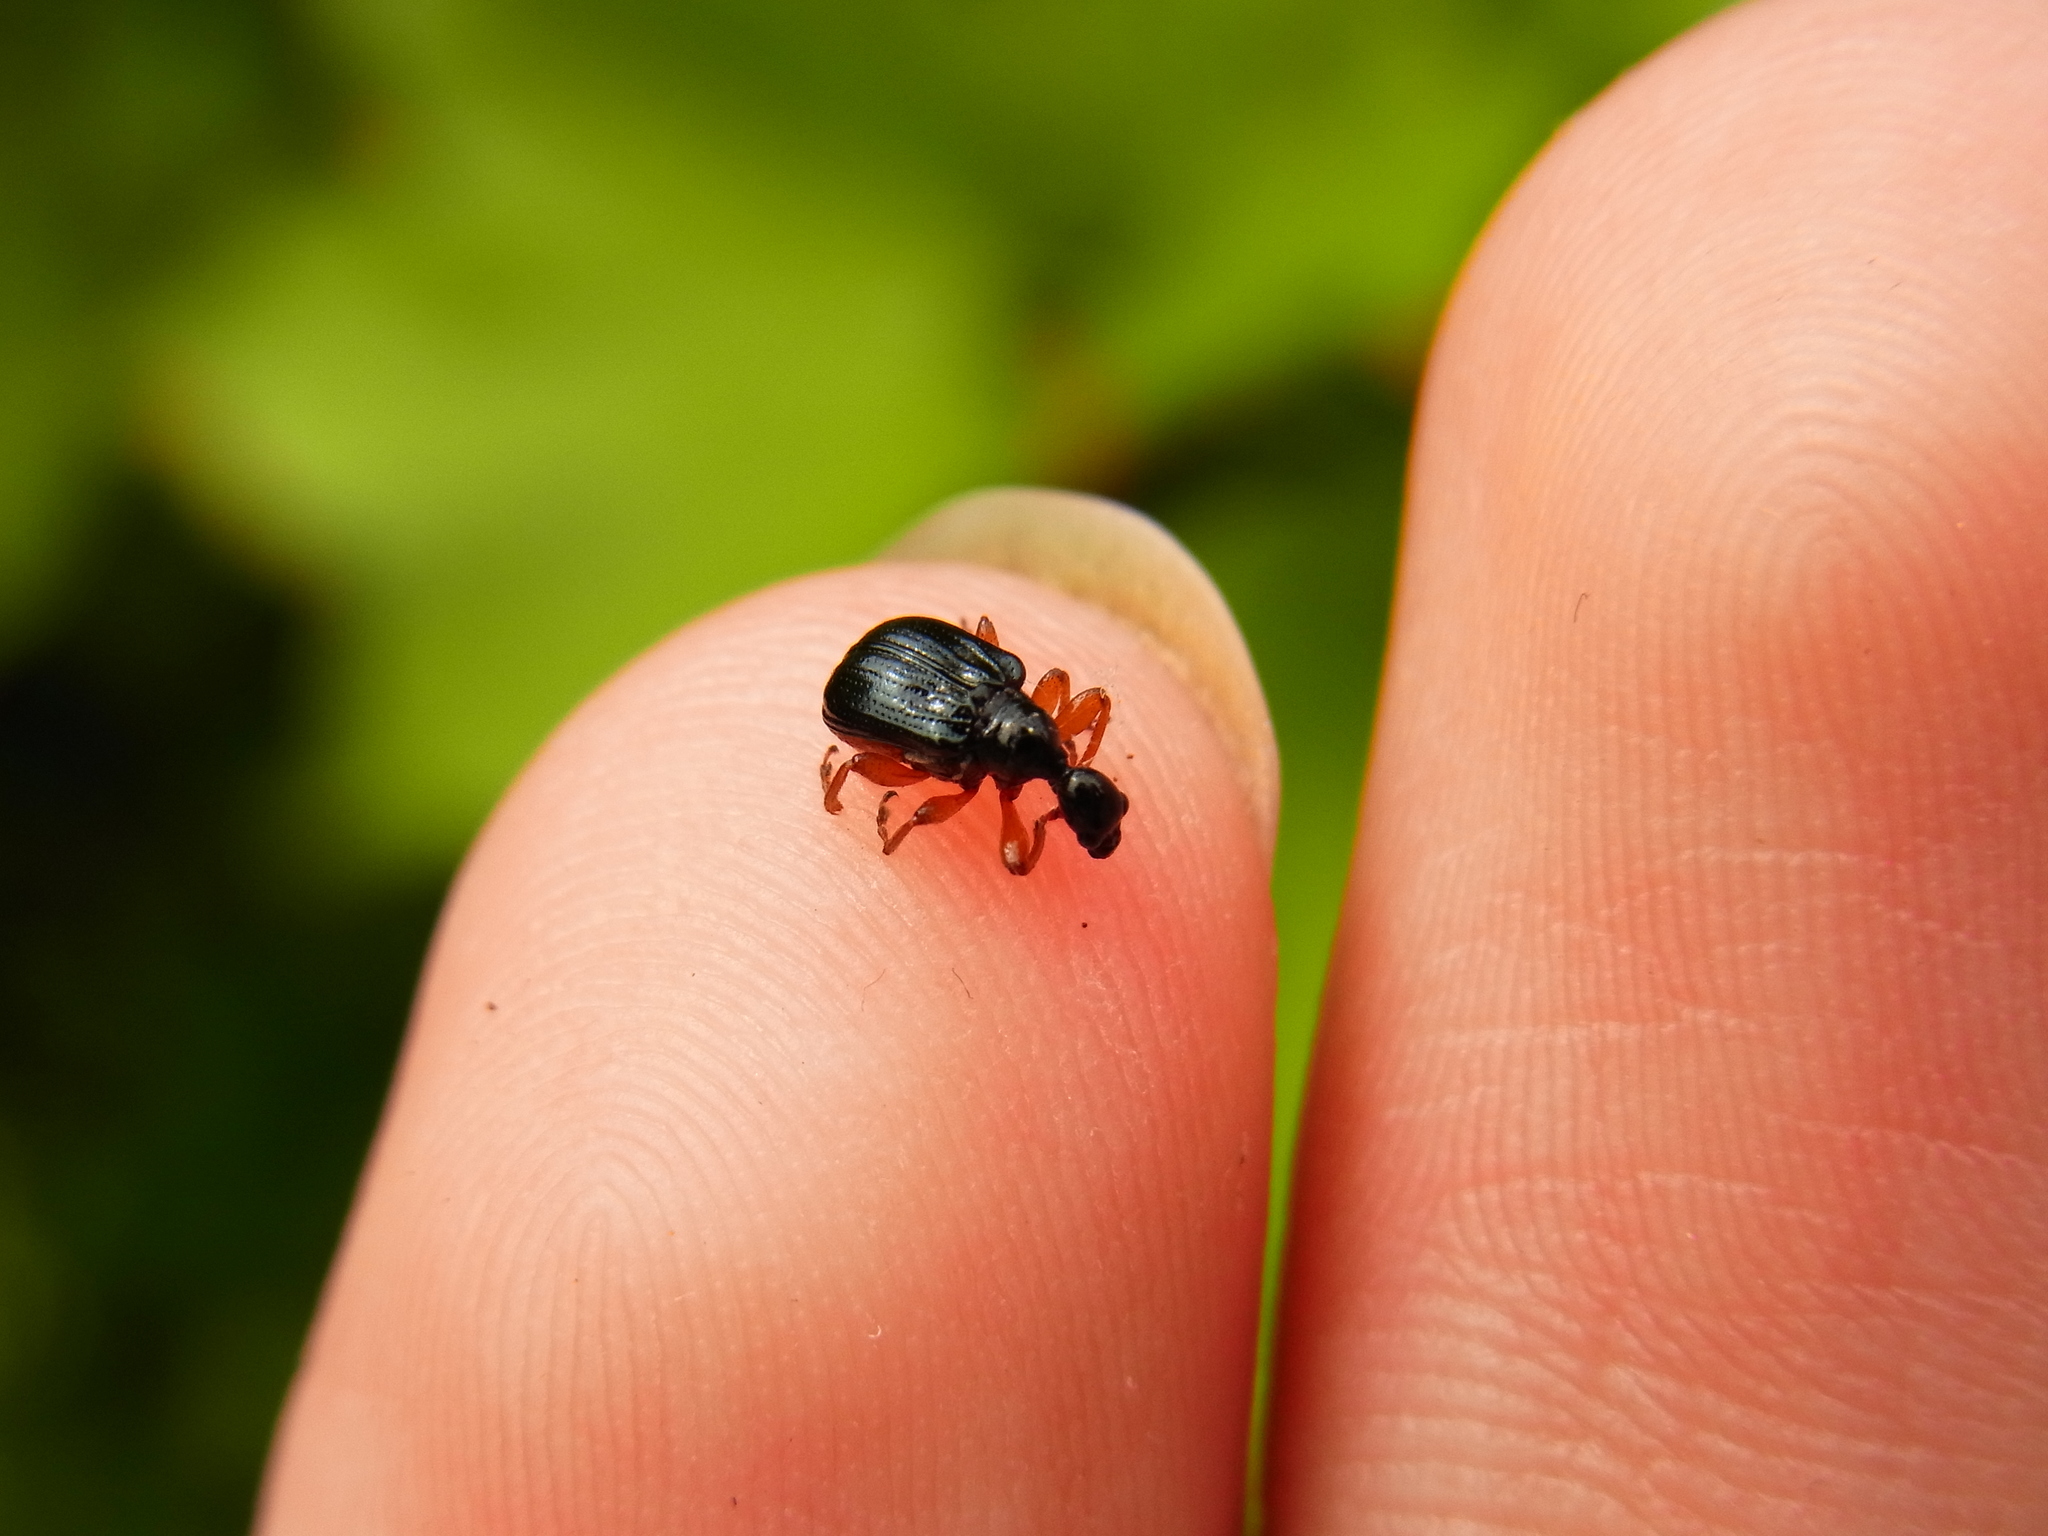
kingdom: Animalia
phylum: Arthropoda
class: Insecta
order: Coleoptera
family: Attelabidae
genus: Compsapoderus
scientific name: Compsapoderus erythrogaster
